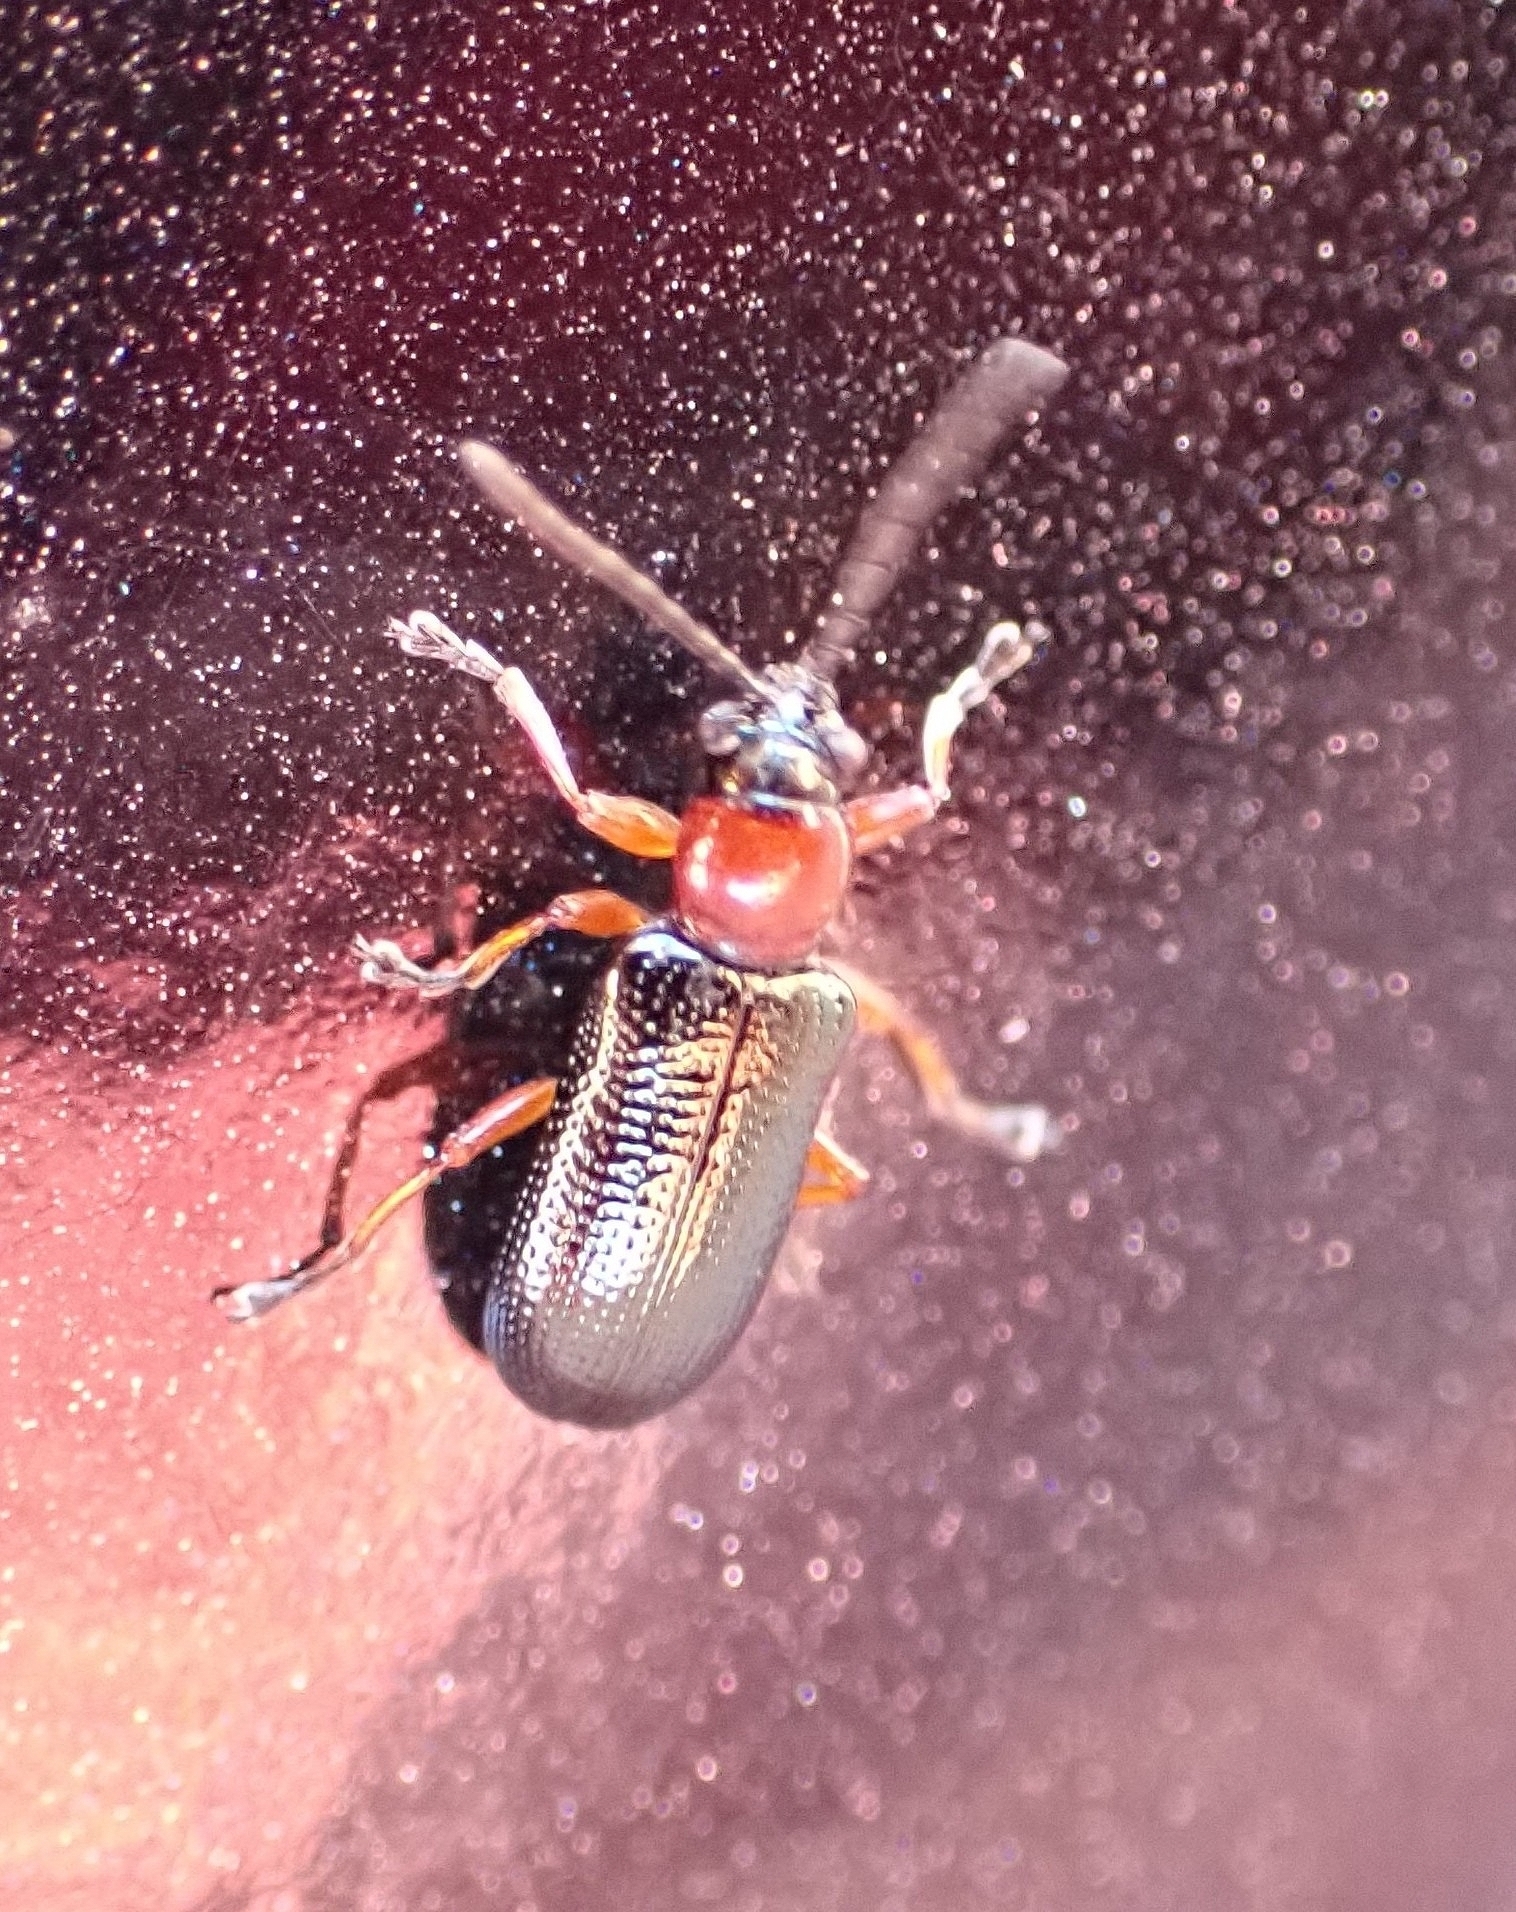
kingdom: Animalia
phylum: Arthropoda
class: Insecta
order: Coleoptera
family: Chrysomelidae
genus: Oulema
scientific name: Oulema melanopus
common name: Cereal leaf beetle
